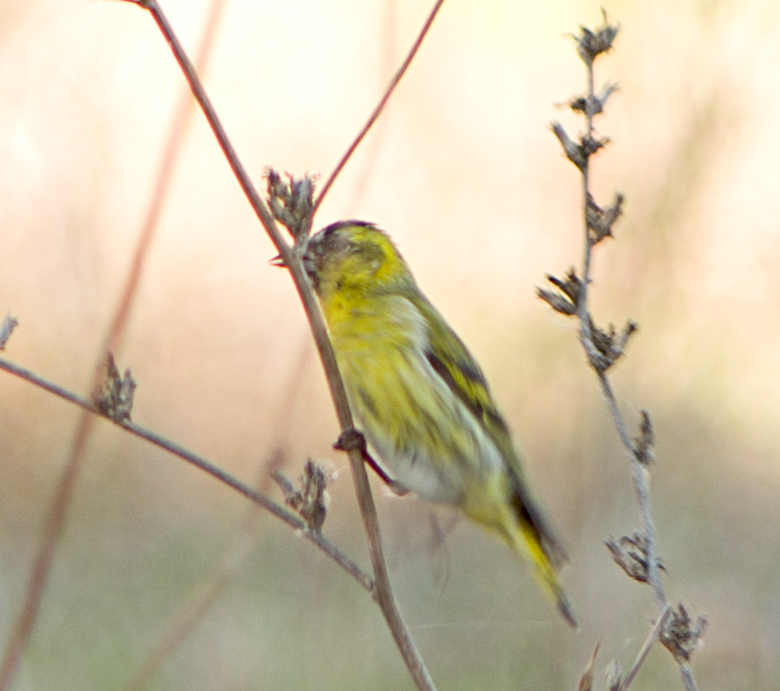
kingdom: Animalia
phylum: Chordata
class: Aves
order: Passeriformes
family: Fringillidae
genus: Spinus
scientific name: Spinus spinus
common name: Eurasian siskin
